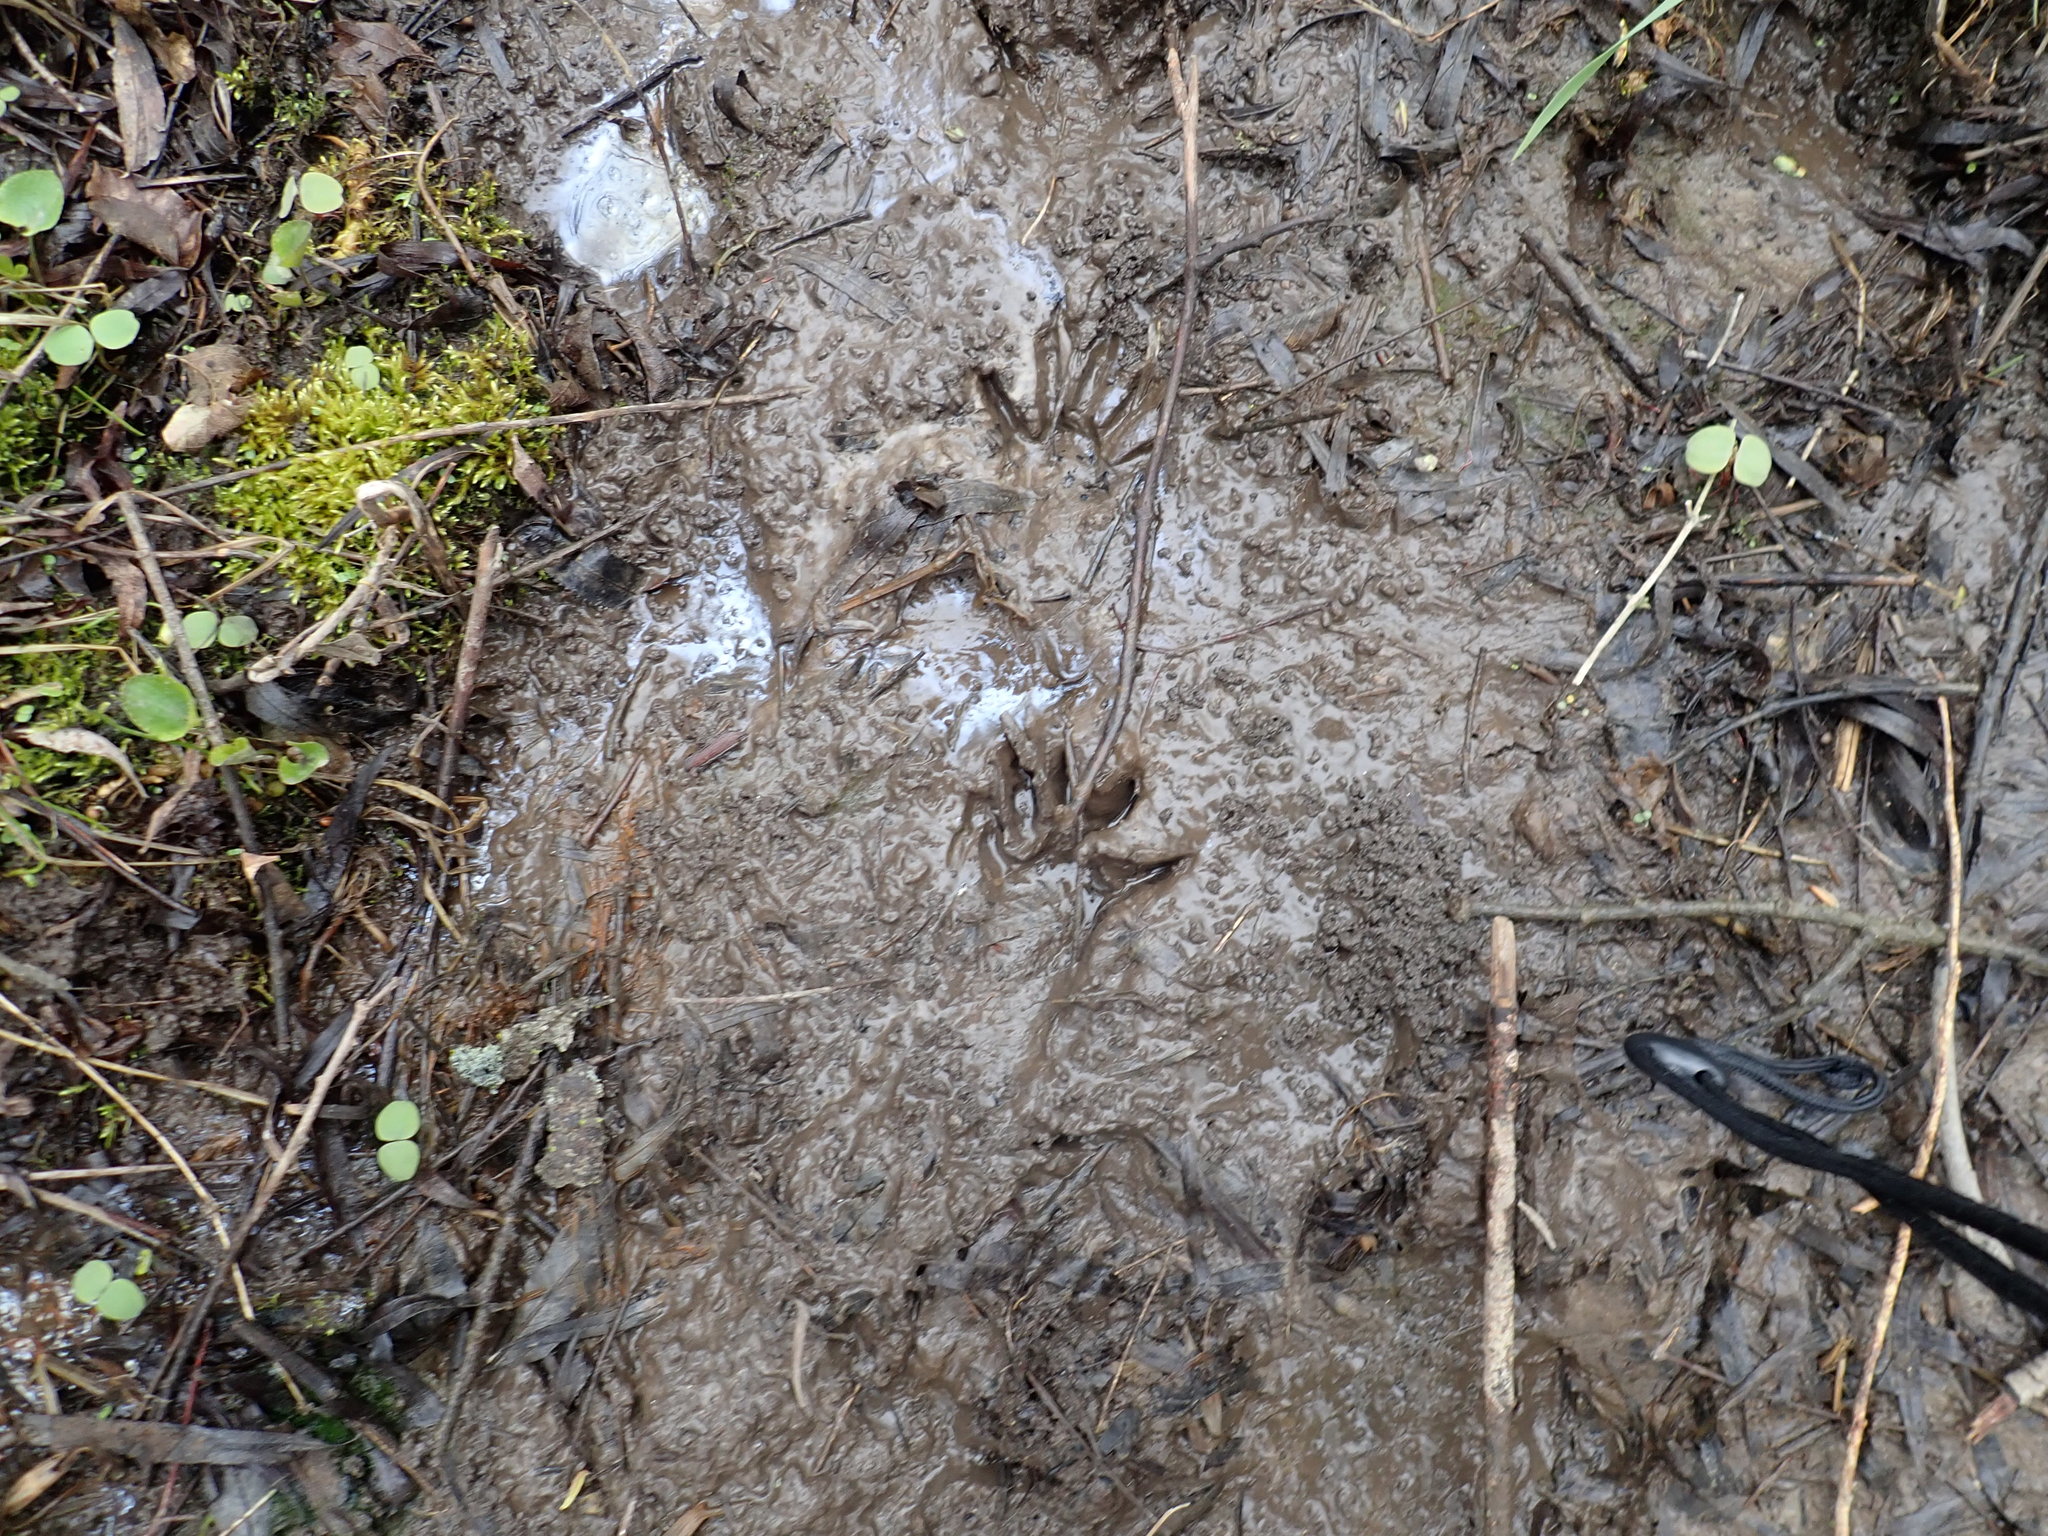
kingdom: Animalia
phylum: Chordata
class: Mammalia
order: Carnivora
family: Procyonidae
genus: Procyon
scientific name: Procyon lotor
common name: Raccoon
